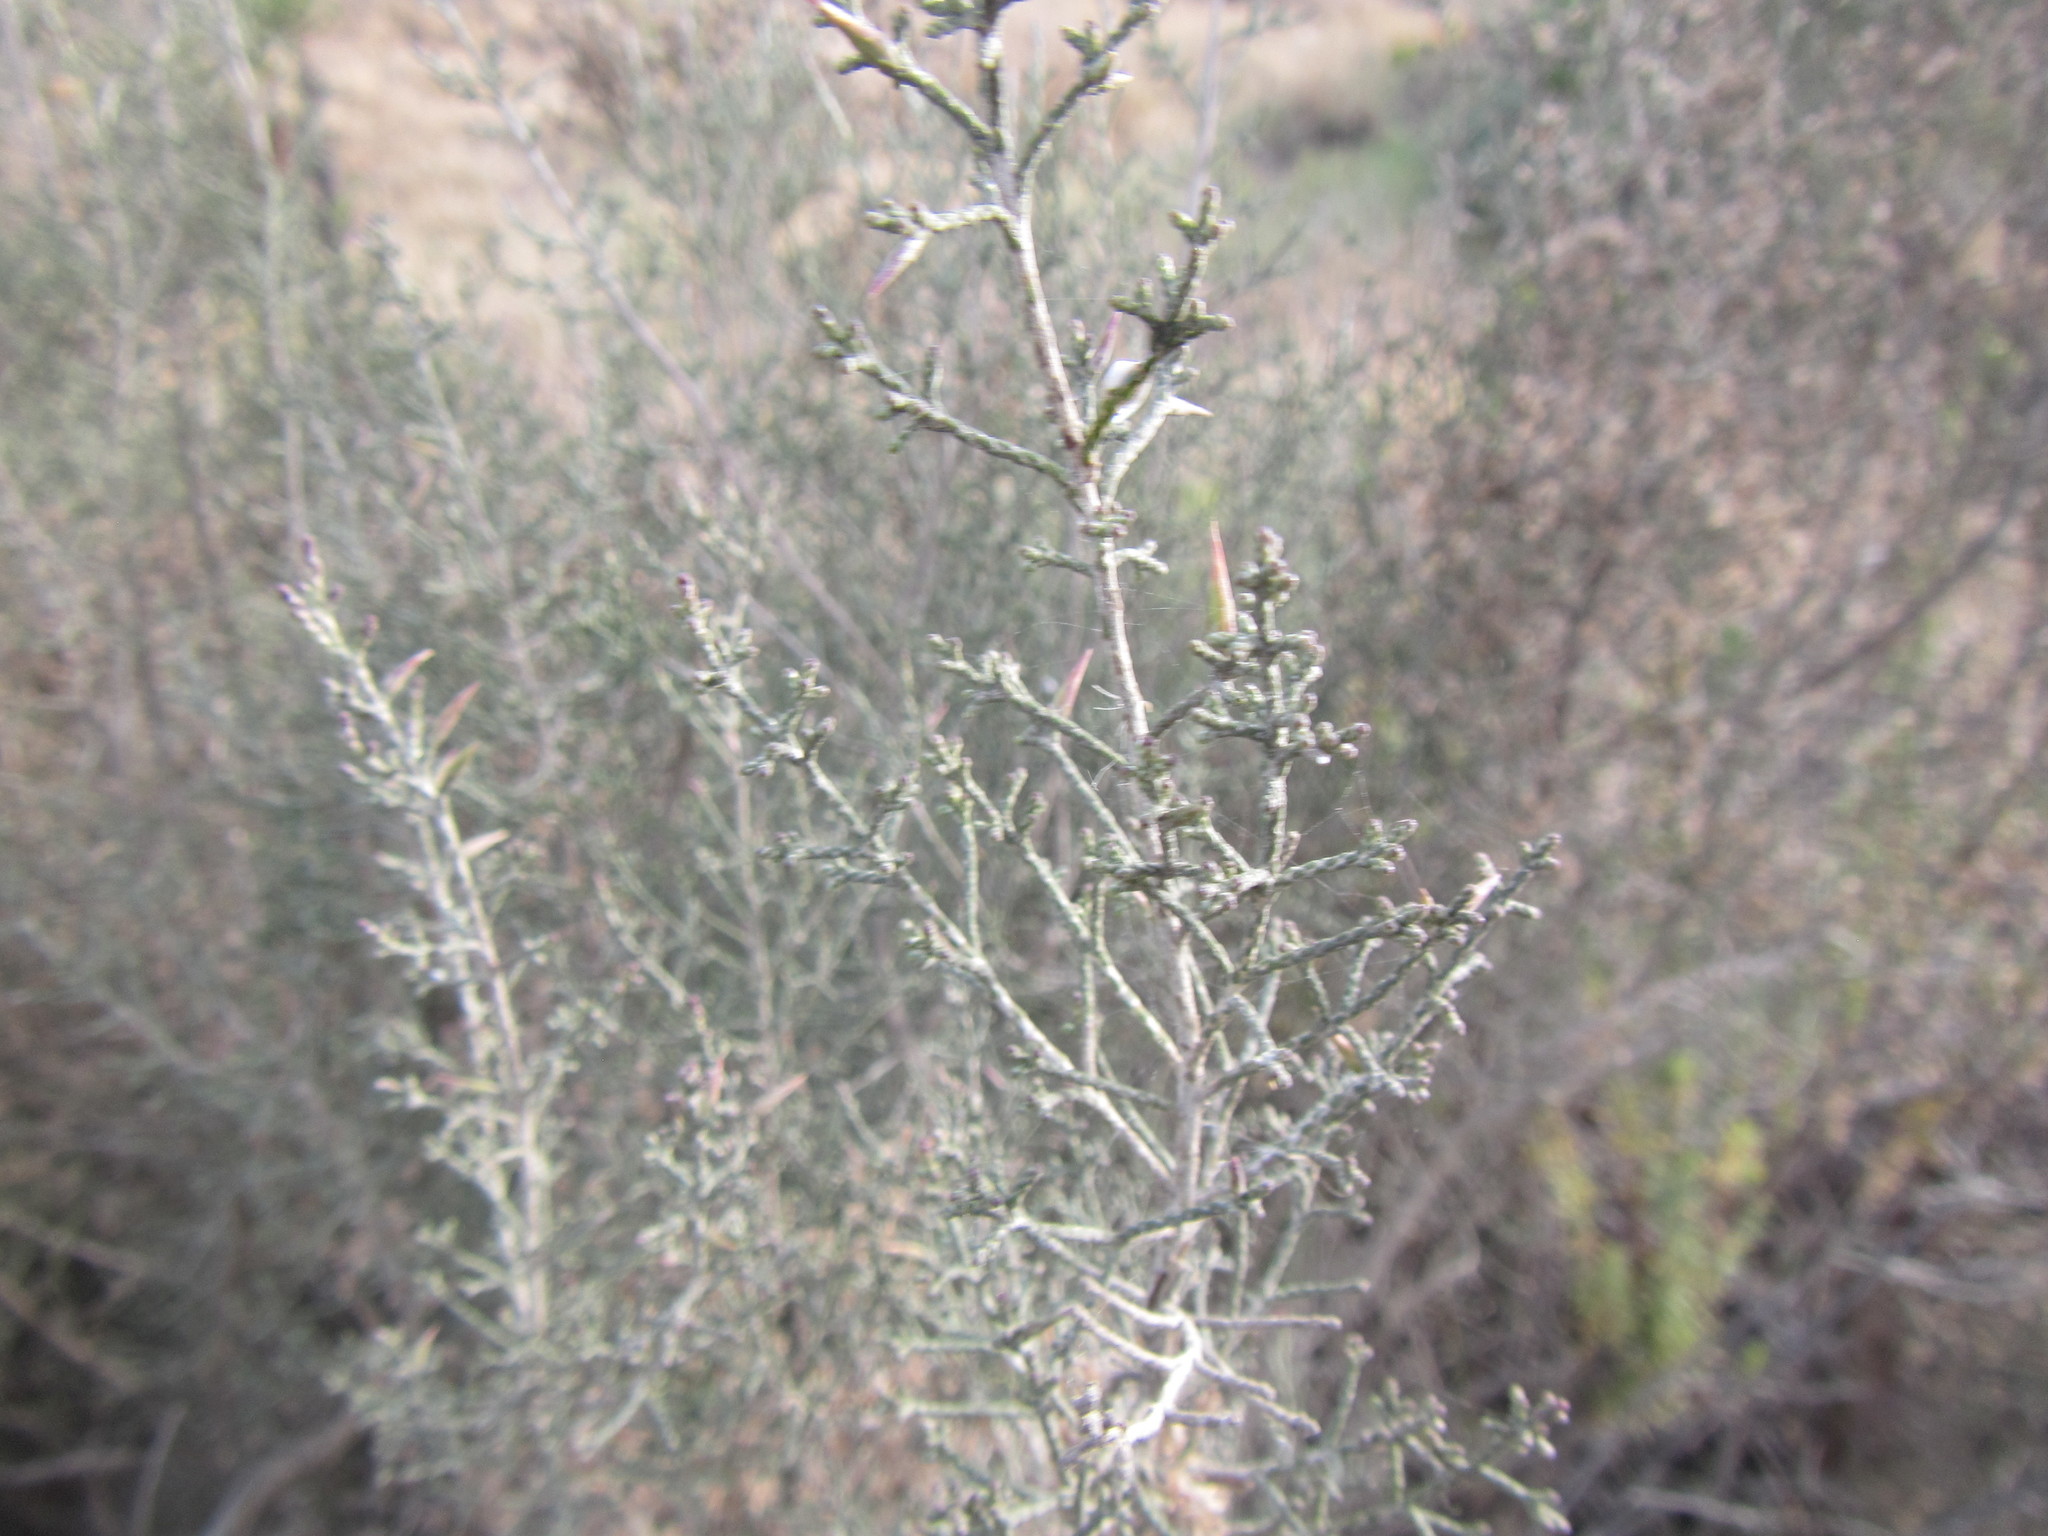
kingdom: Plantae
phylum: Tracheophyta
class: Magnoliopsida
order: Asterales
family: Asteraceae
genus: Dicerothamnus
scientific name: Dicerothamnus rhinocerotis
